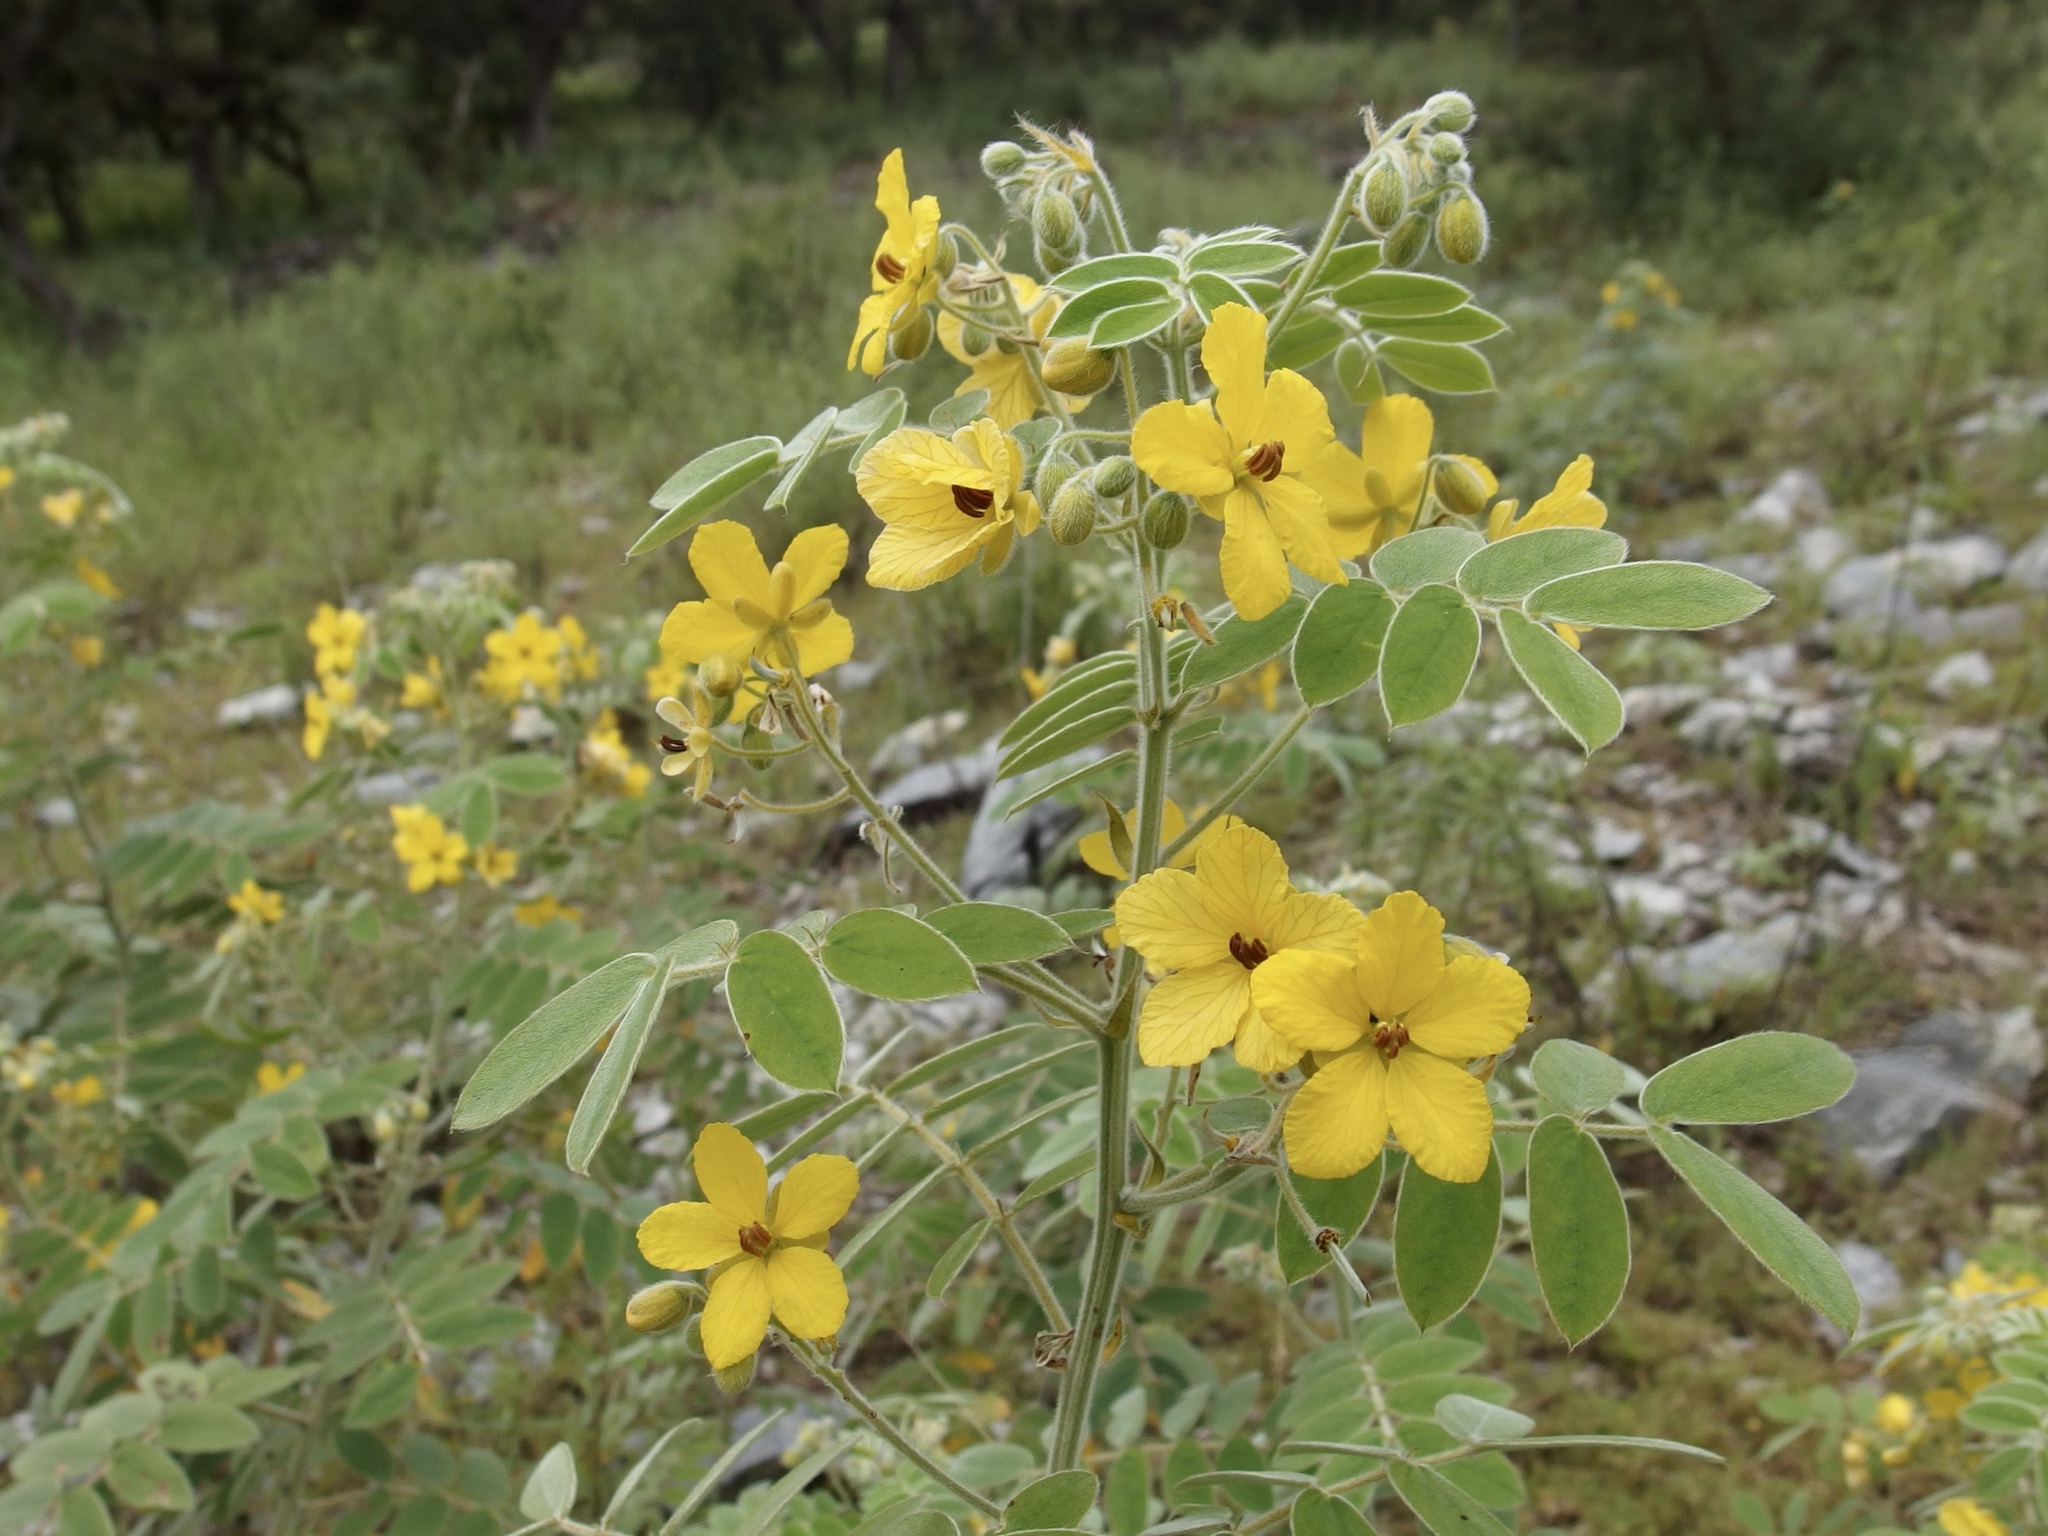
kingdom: Plantae
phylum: Tracheophyta
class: Magnoliopsida
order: Fabales
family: Fabaceae
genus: Senna
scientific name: Senna lindheimeriana
